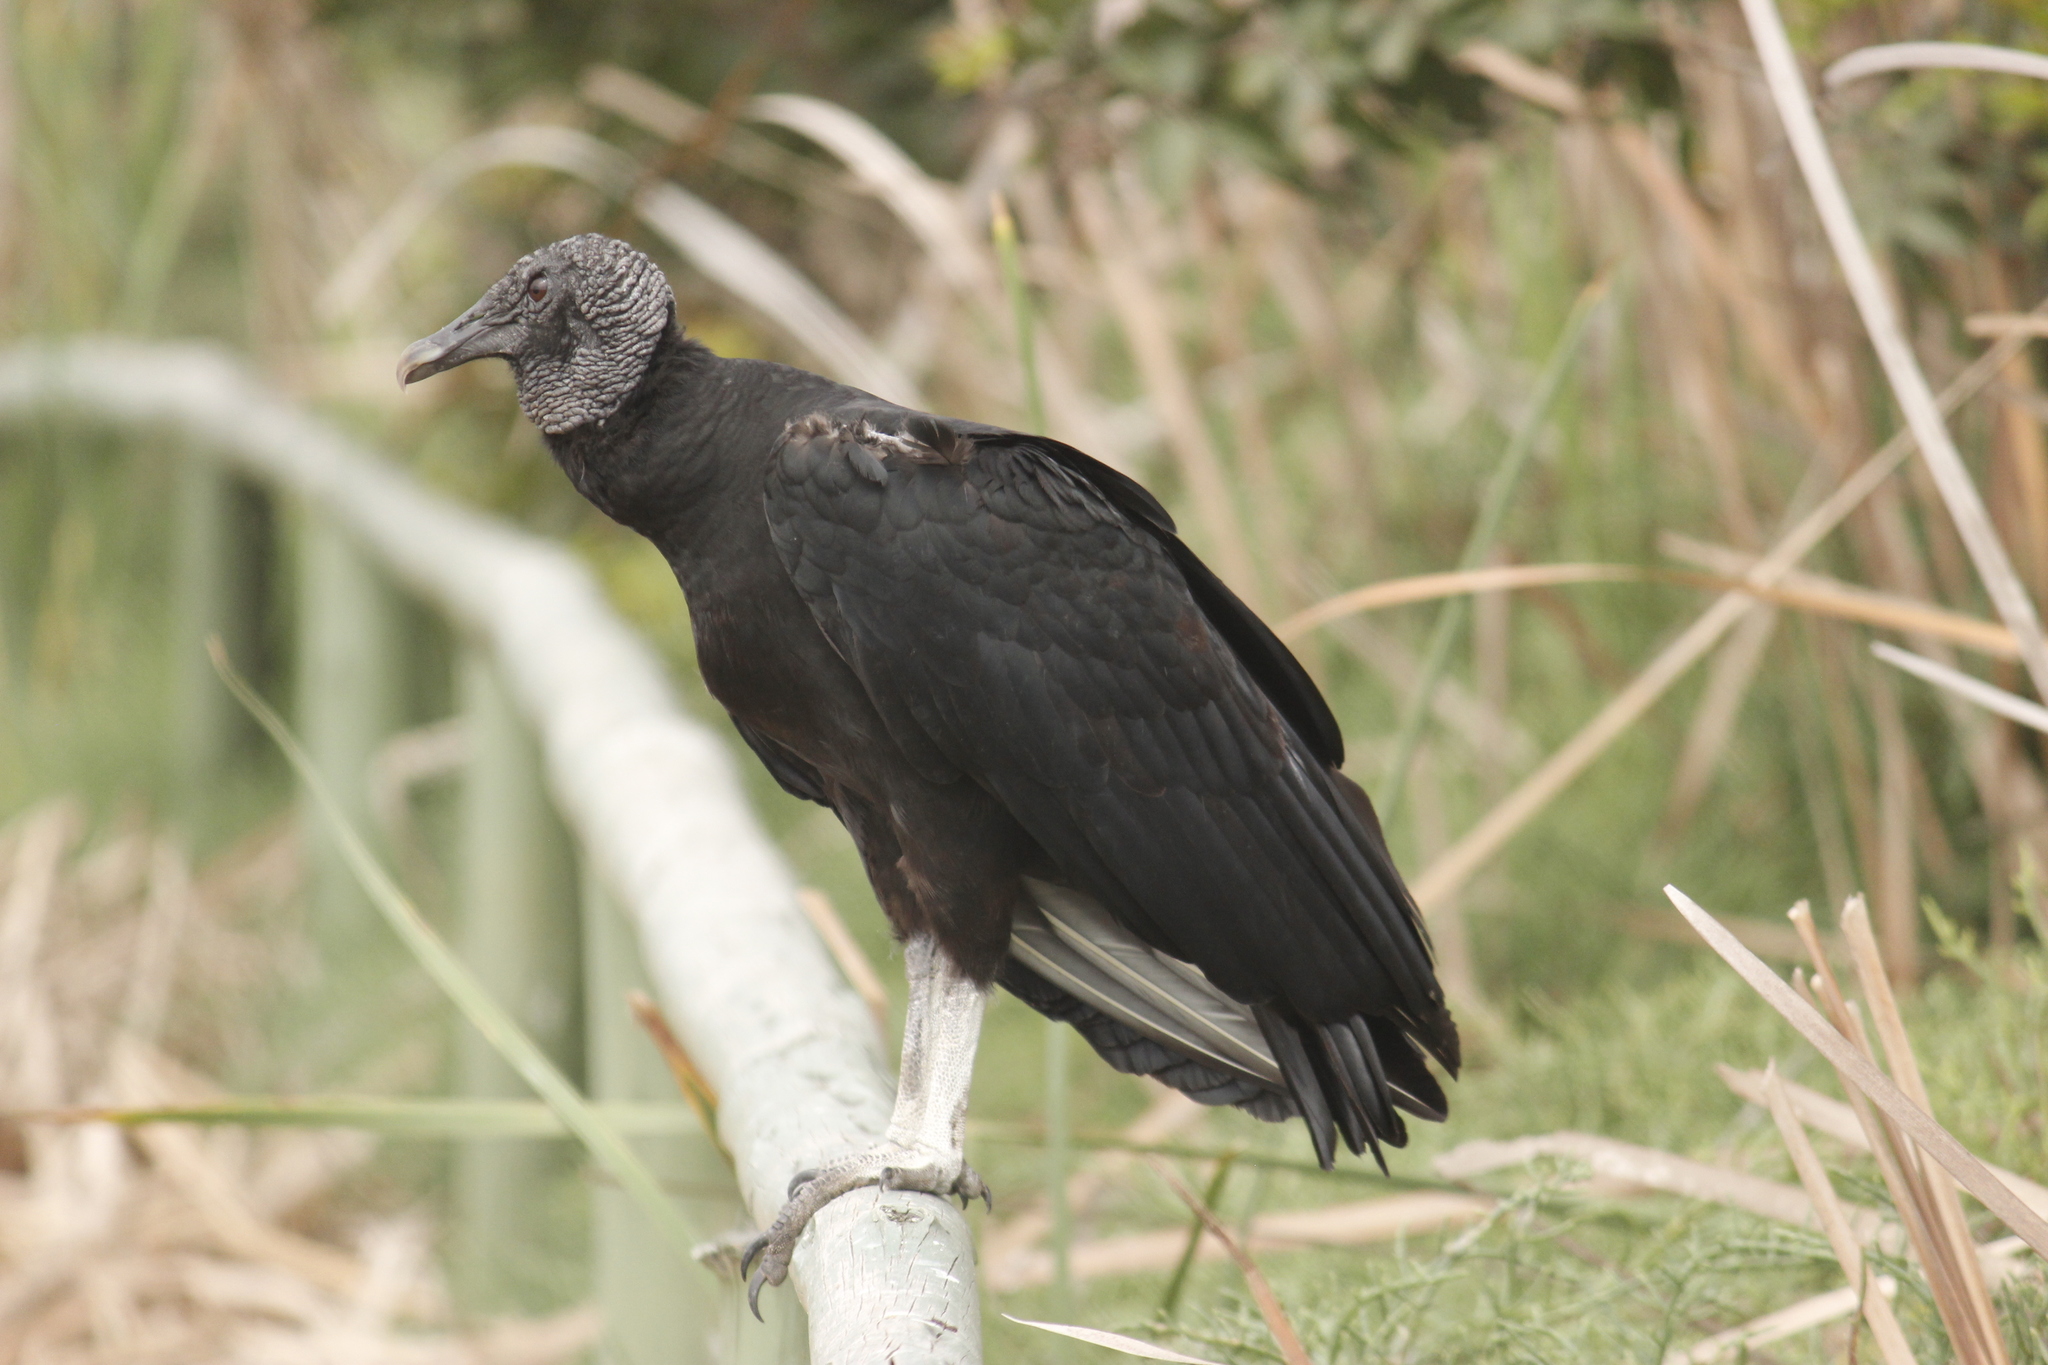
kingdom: Animalia
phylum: Chordata
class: Aves
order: Accipitriformes
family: Cathartidae
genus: Coragyps
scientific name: Coragyps atratus
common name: Black vulture
